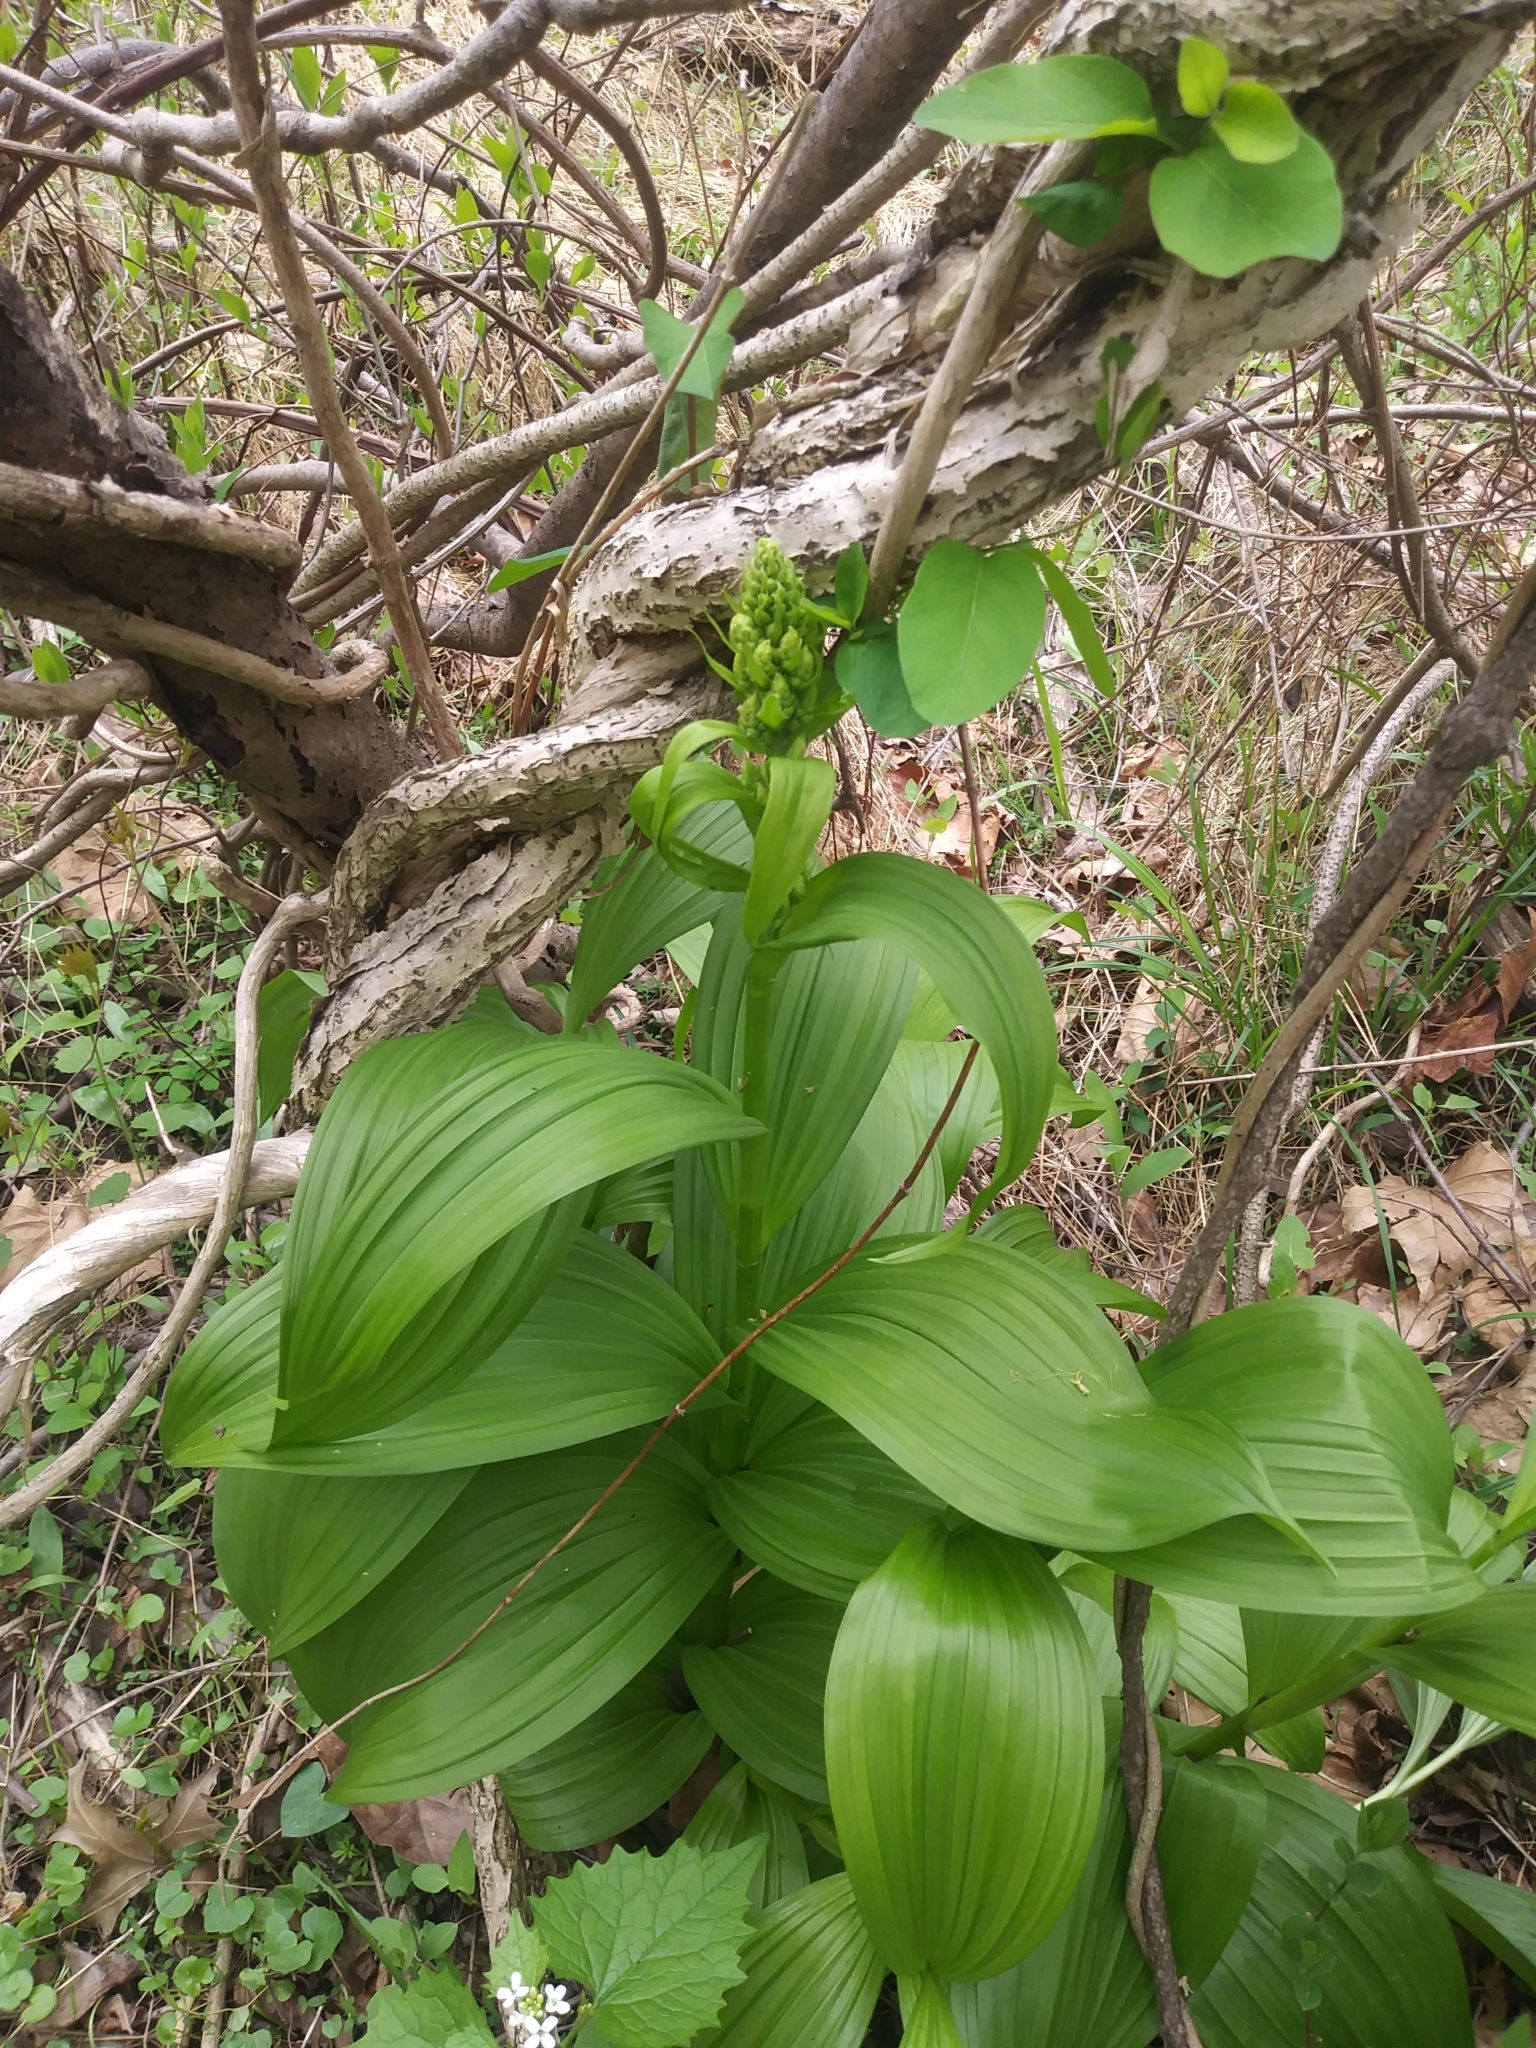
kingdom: Plantae
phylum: Tracheophyta
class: Liliopsida
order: Liliales
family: Melanthiaceae
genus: Veratrum
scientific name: Veratrum viride
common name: American false hellebore
